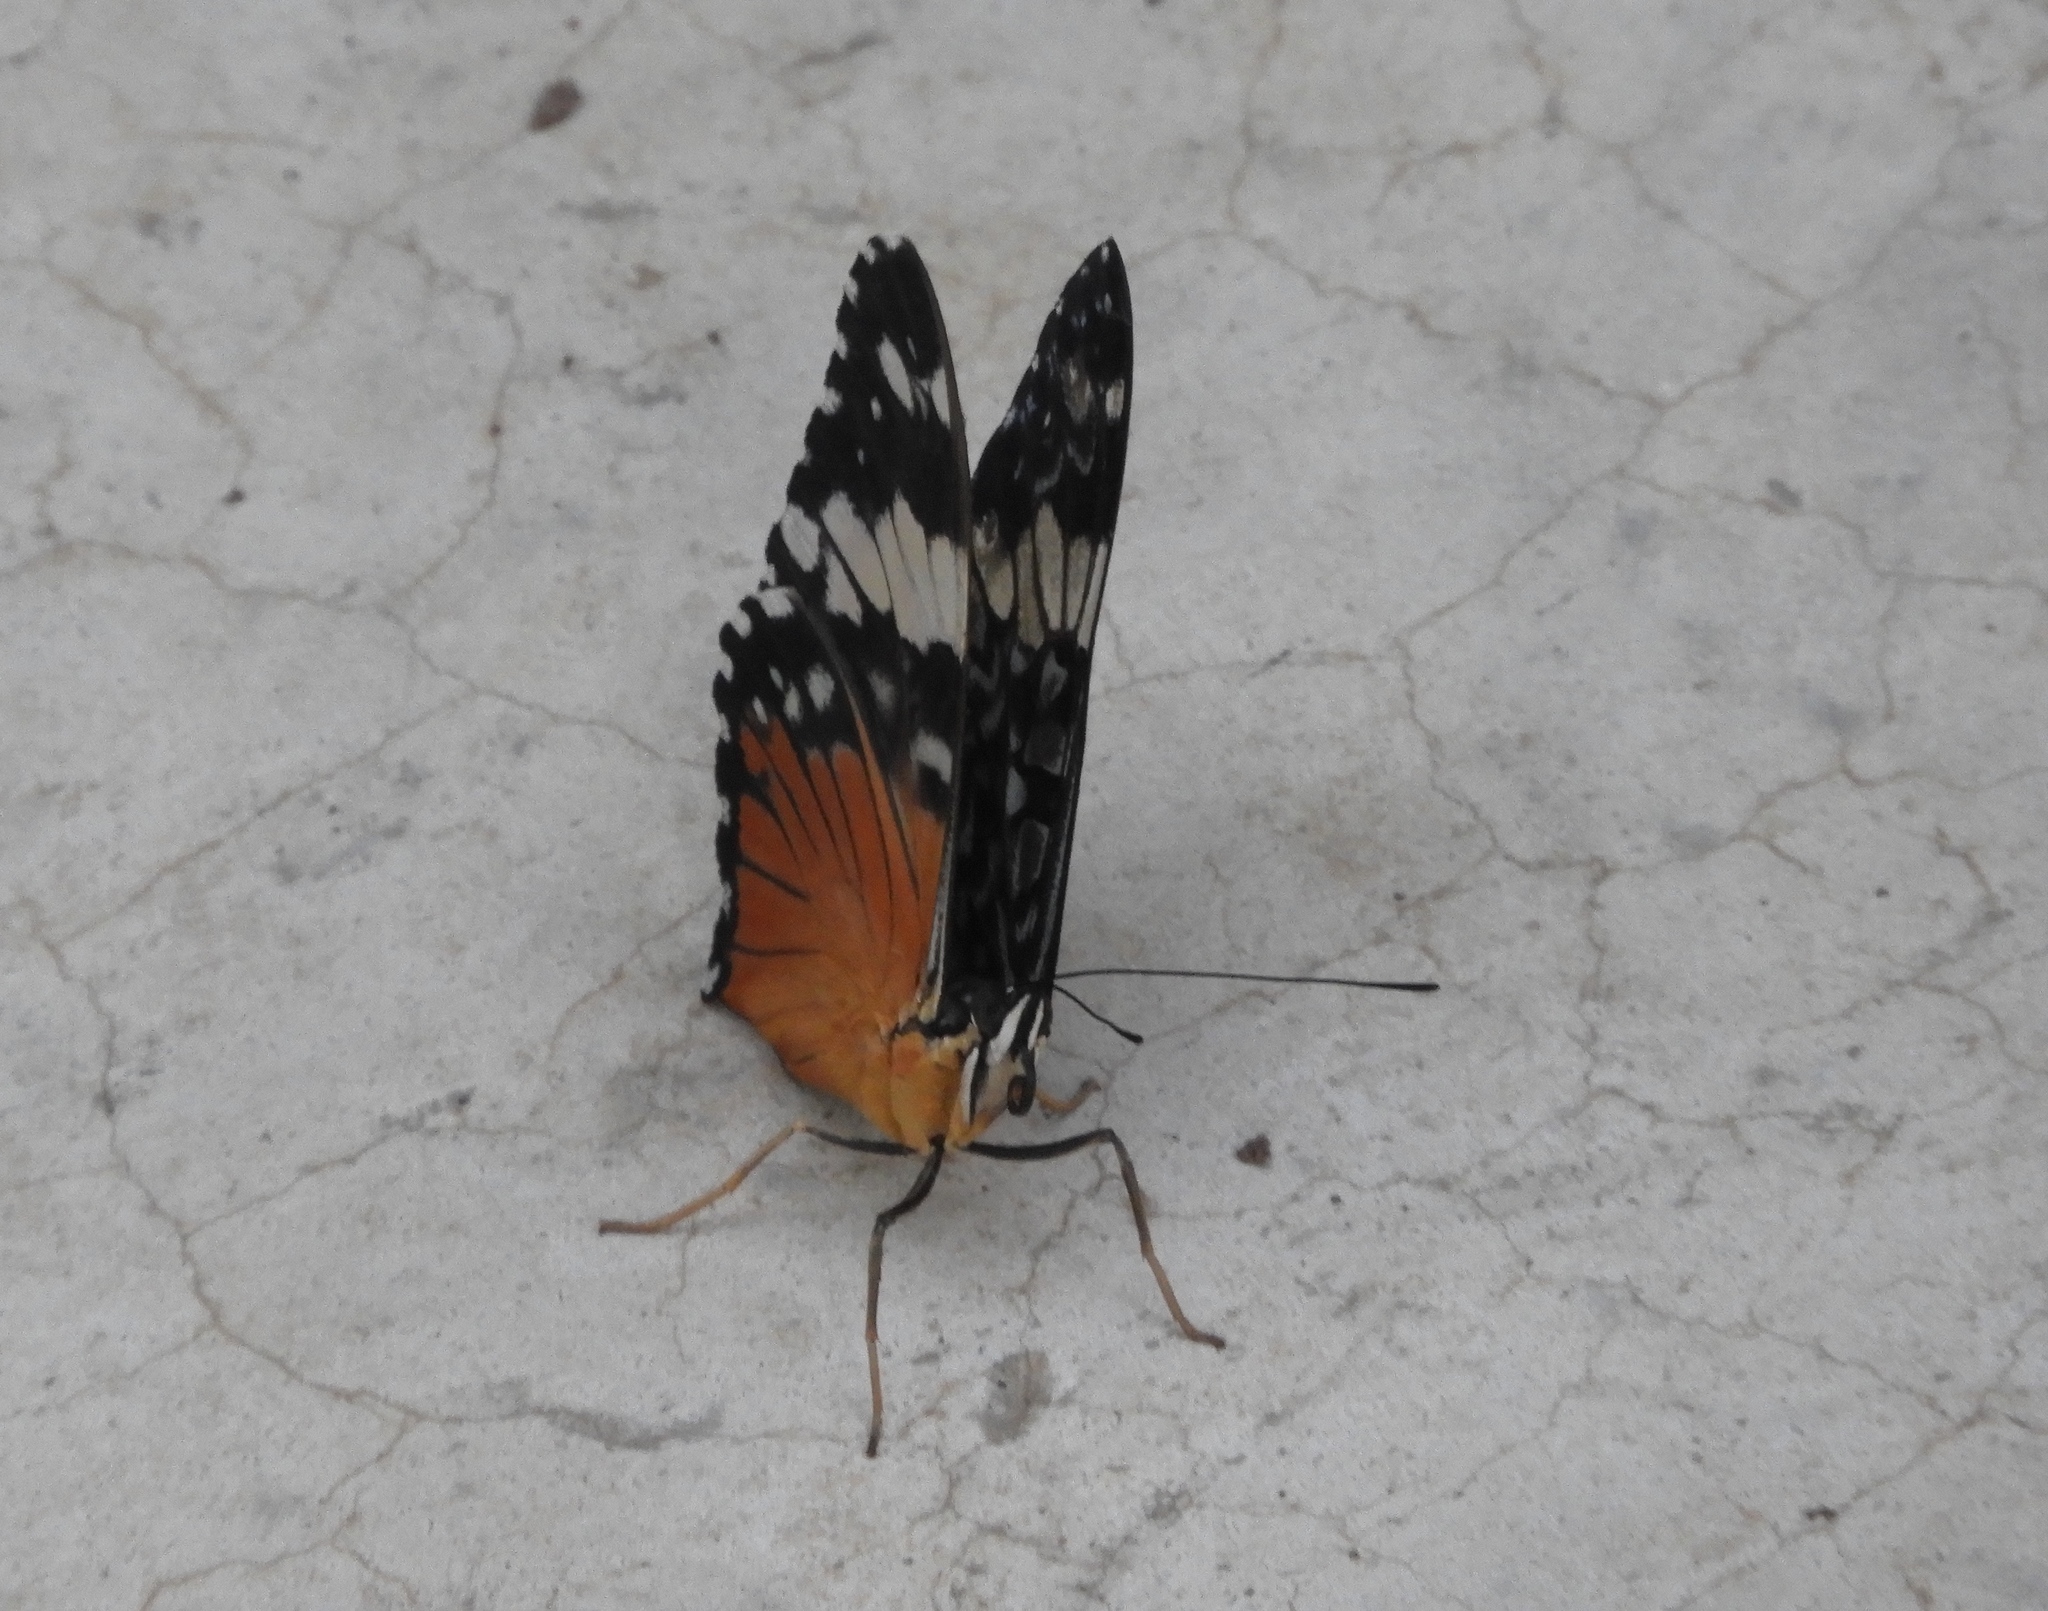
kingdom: Animalia
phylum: Arthropoda
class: Insecta
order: Lepidoptera
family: Nymphalidae
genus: Hamadryas
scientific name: Hamadryas amphinome
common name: Red cracker
